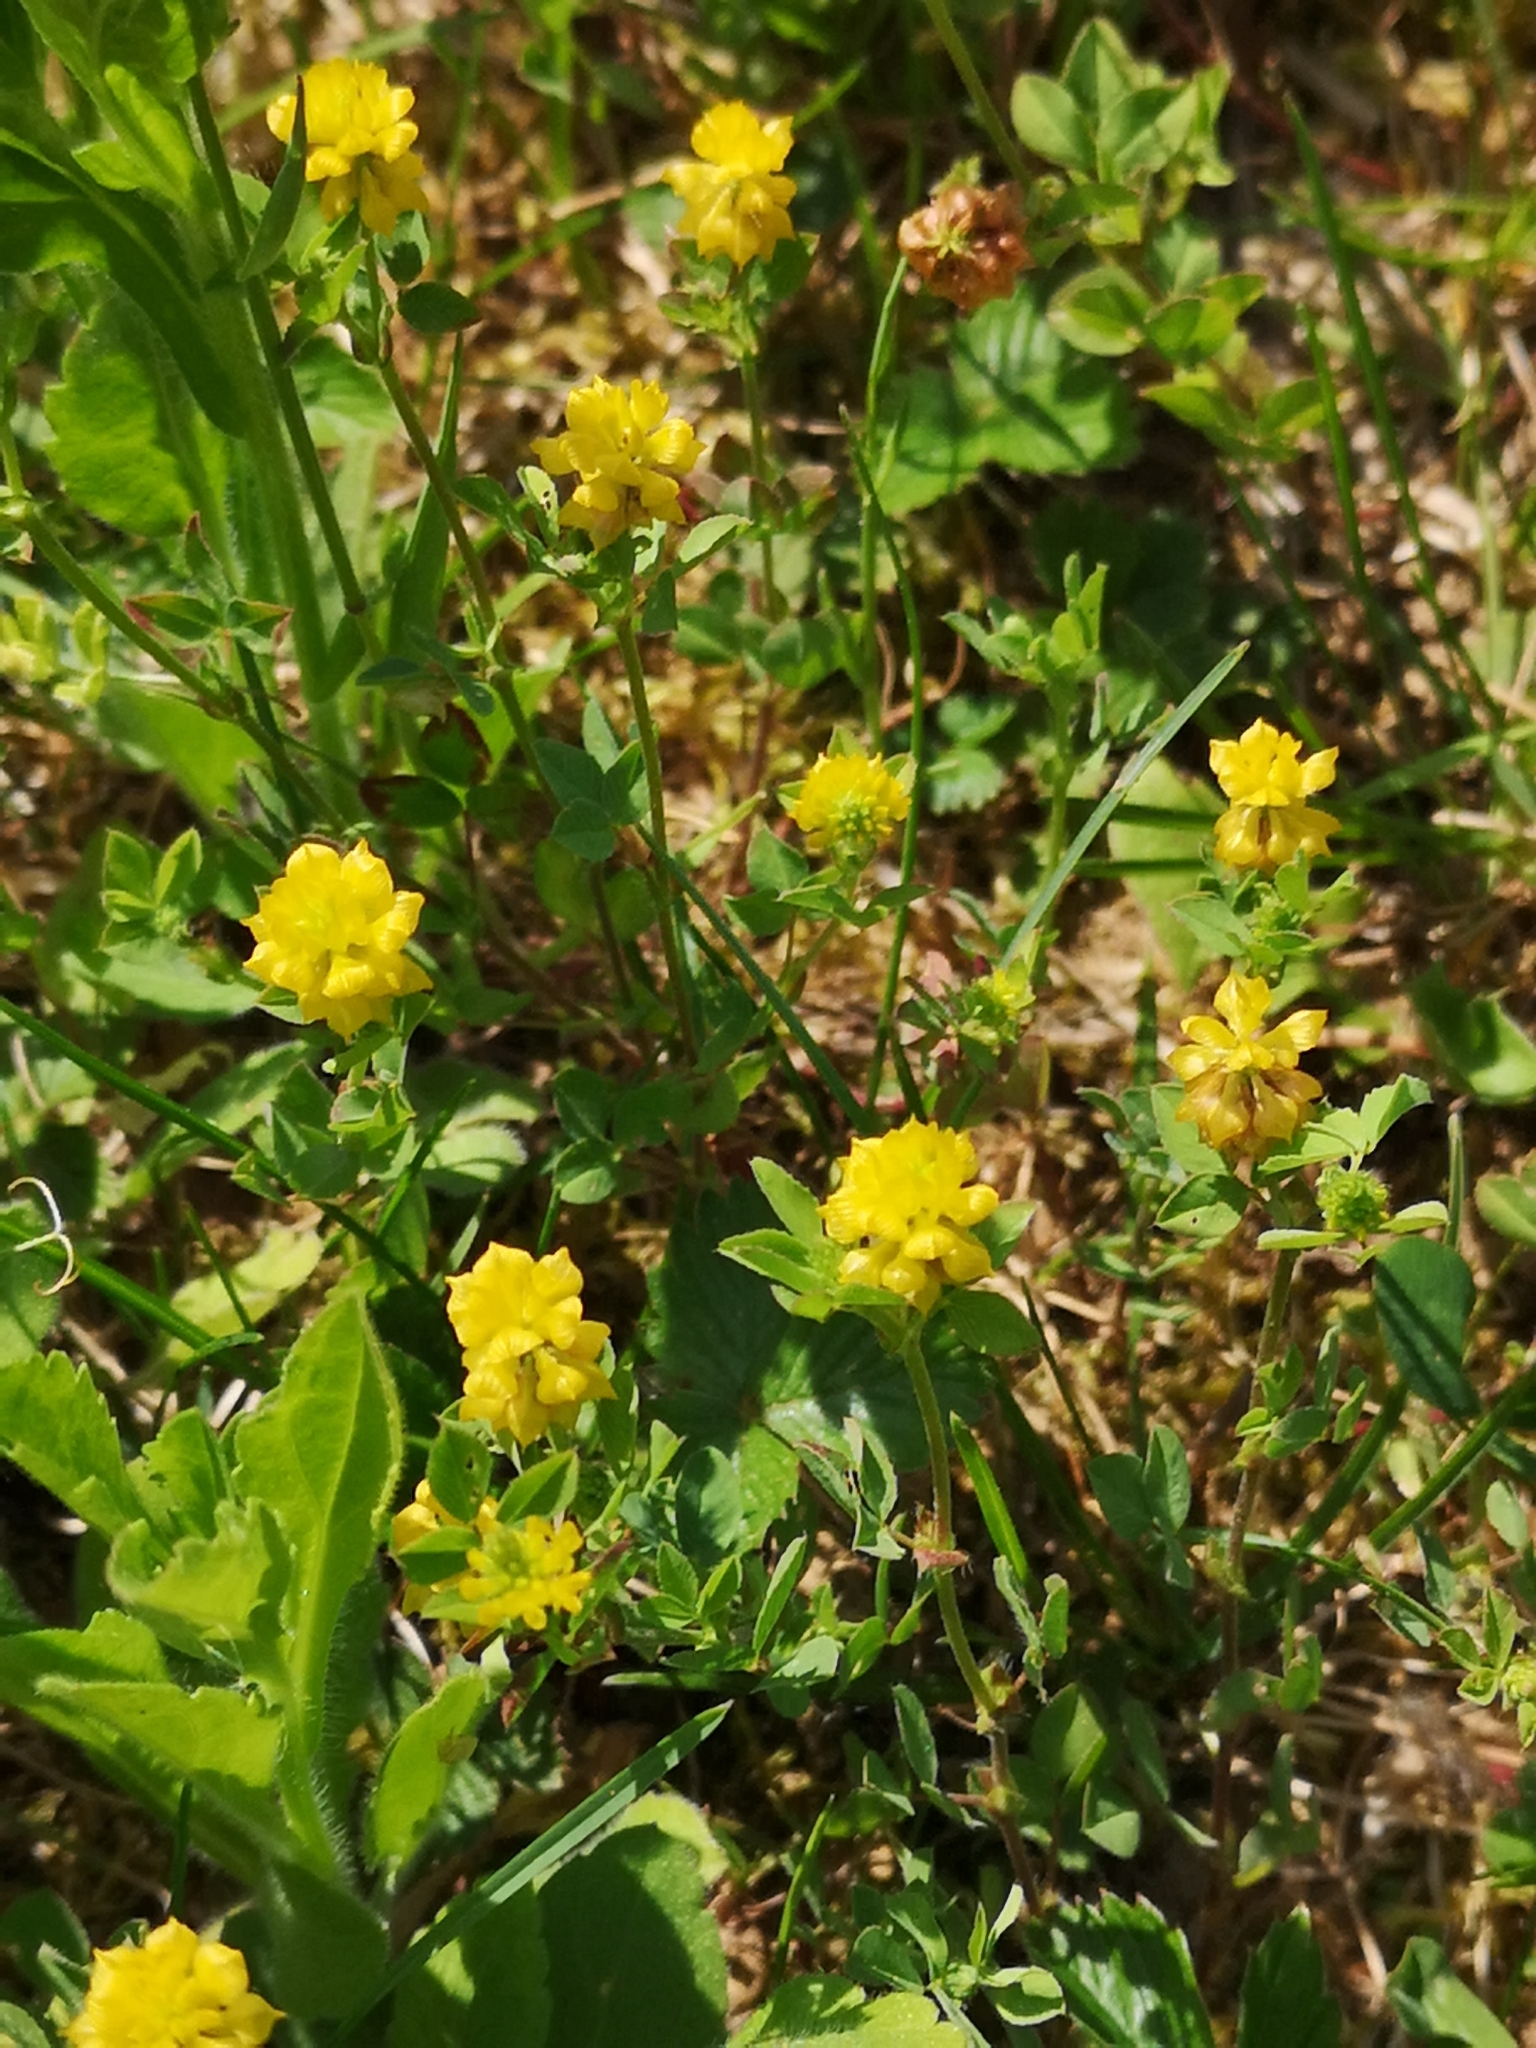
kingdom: Plantae
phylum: Tracheophyta
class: Magnoliopsida
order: Fabales
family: Fabaceae
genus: Trifolium
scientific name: Trifolium campestre
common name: Field clover
